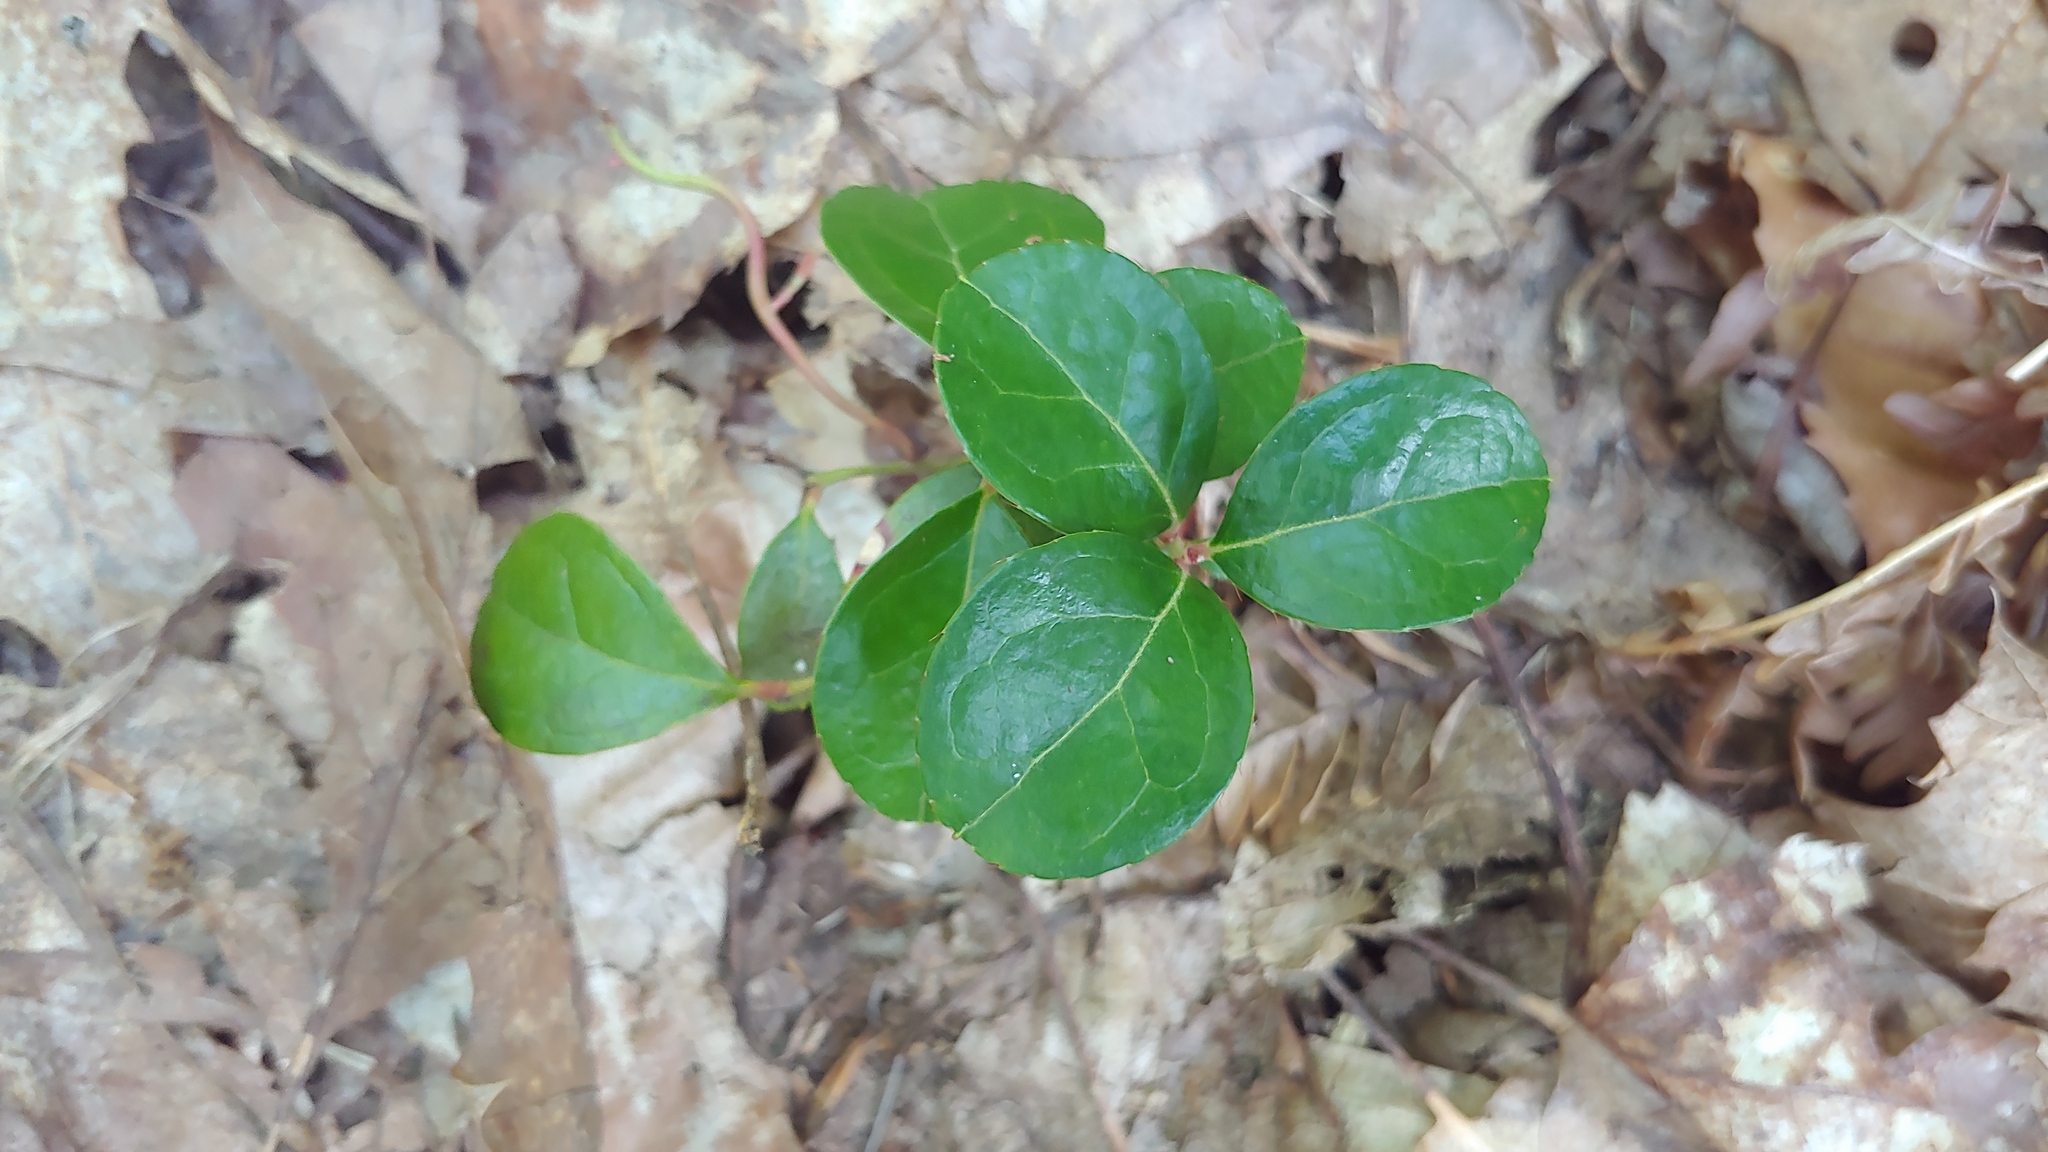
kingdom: Plantae
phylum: Tracheophyta
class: Magnoliopsida
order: Ericales
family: Ericaceae
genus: Gaultheria
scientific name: Gaultheria procumbens
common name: Checkerberry
